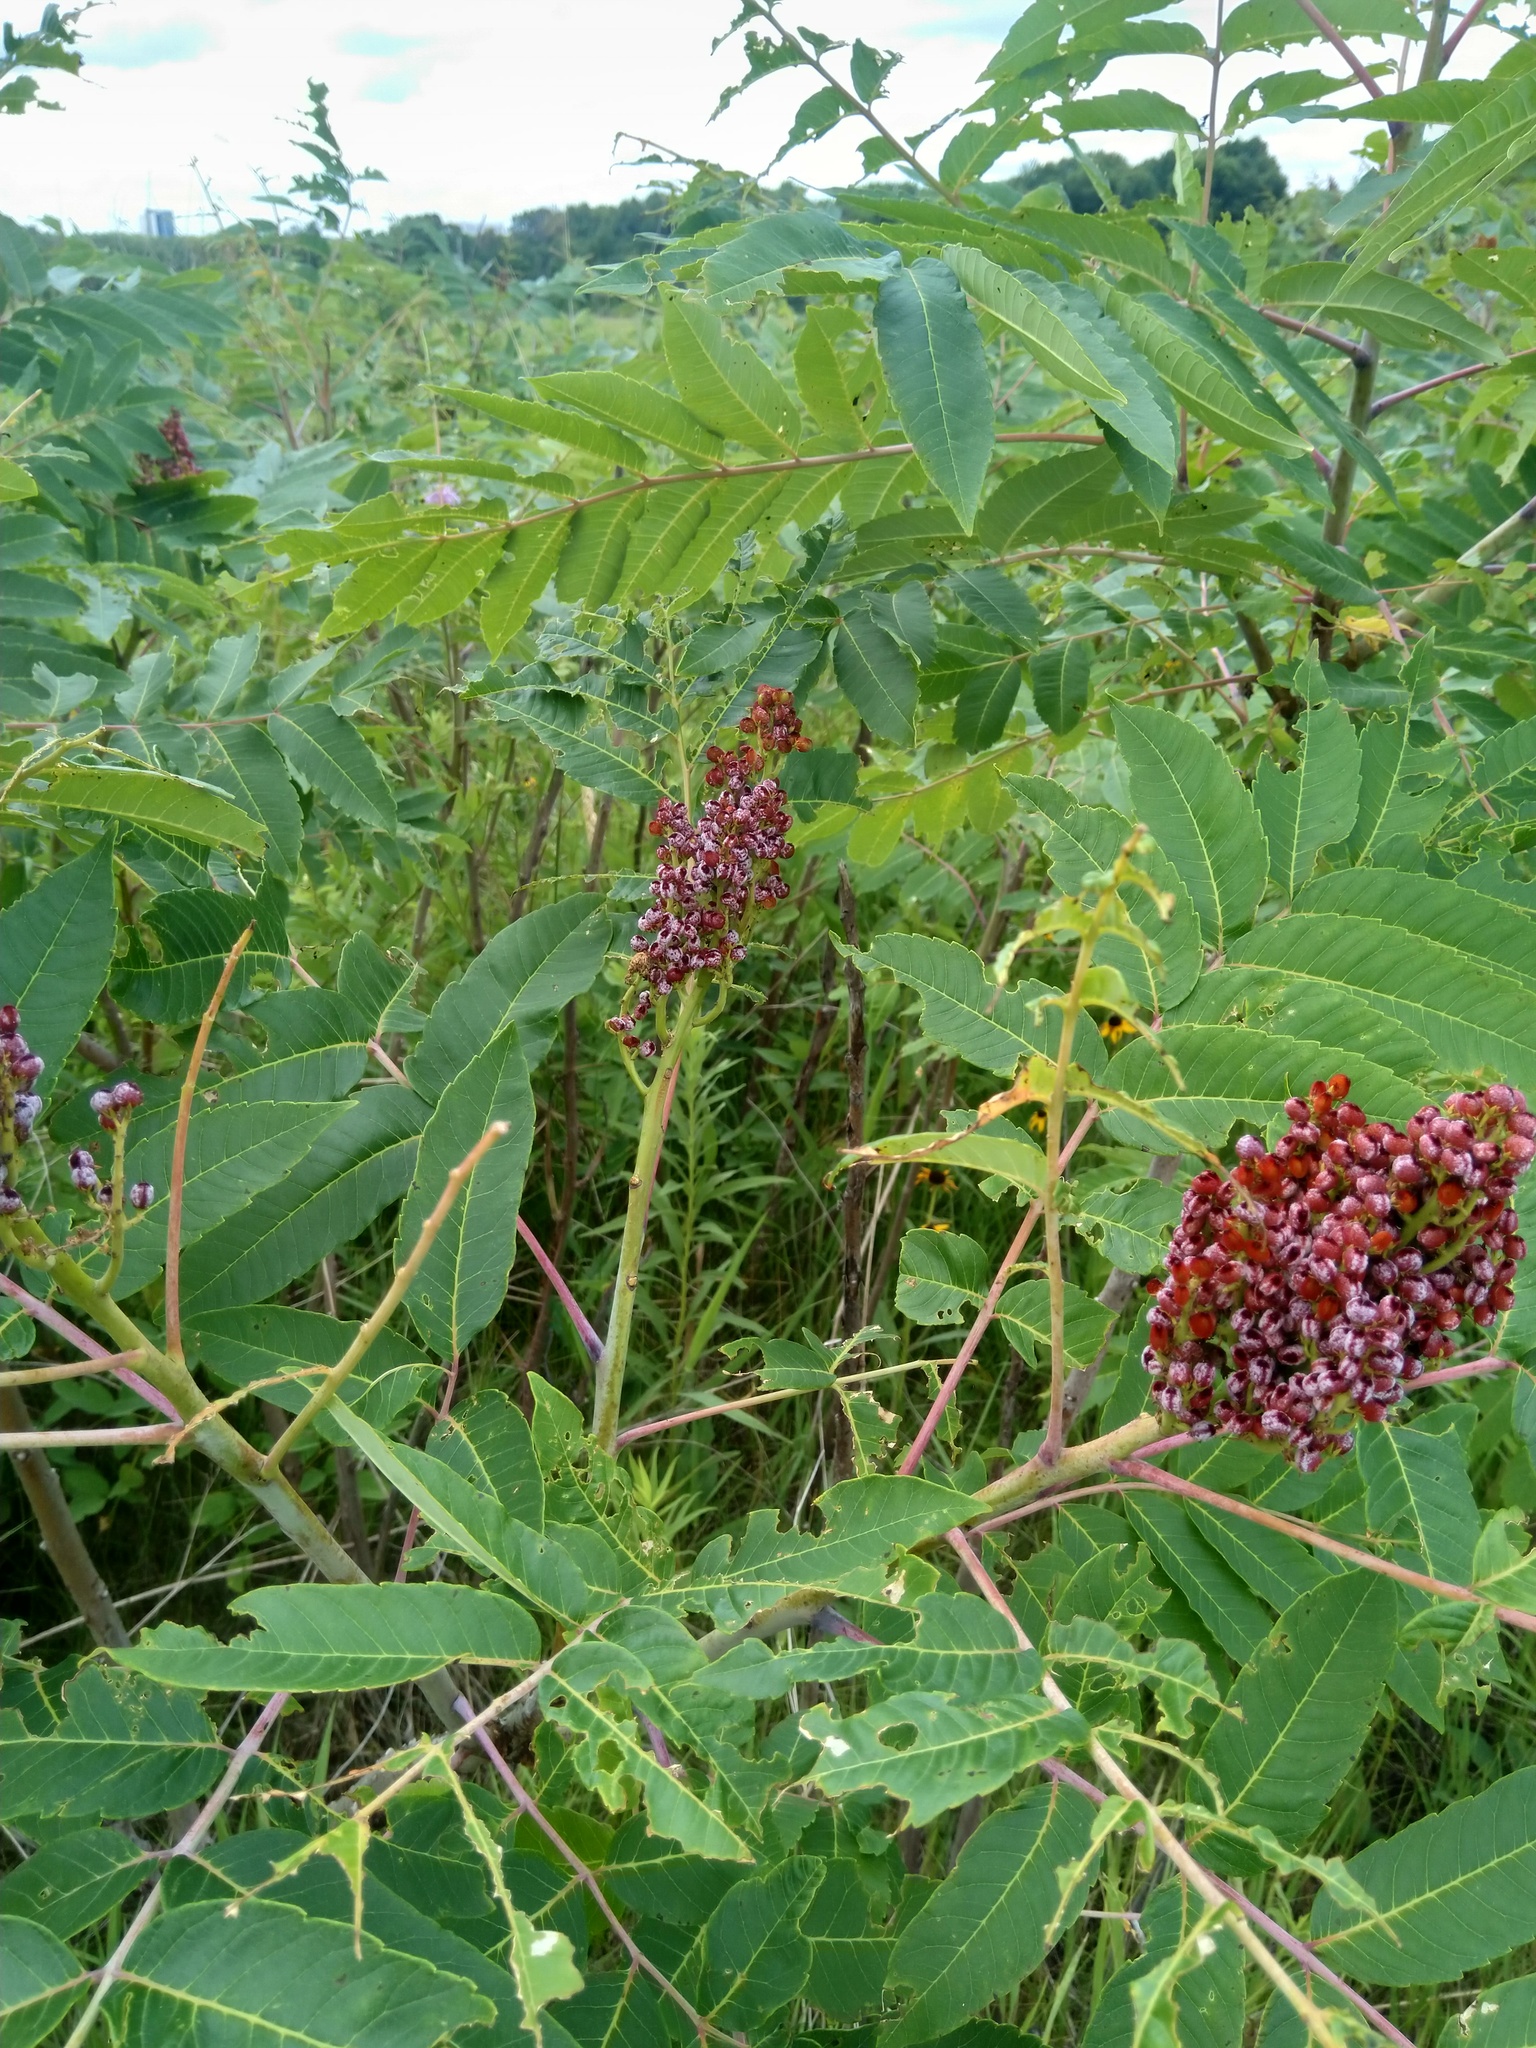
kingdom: Plantae
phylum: Tracheophyta
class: Magnoliopsida
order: Sapindales
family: Anacardiaceae
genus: Rhus
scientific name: Rhus glabra
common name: Scarlet sumac
